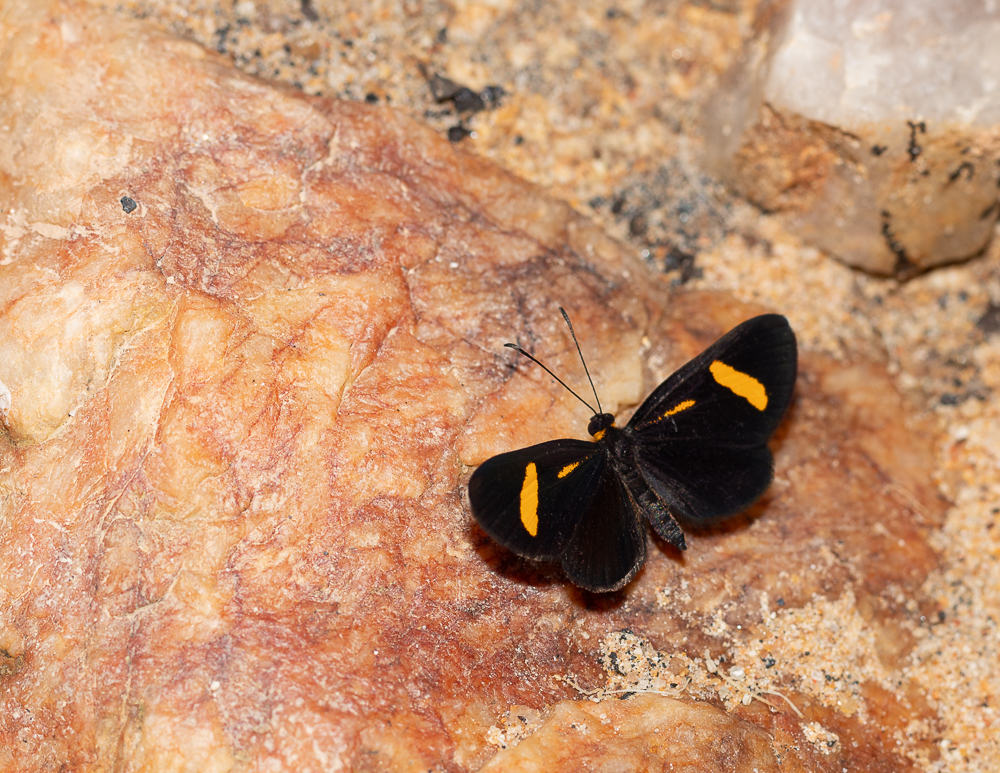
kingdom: Animalia
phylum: Arthropoda
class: Insecta
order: Lepidoptera
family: Riodinidae
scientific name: Riodinidae
